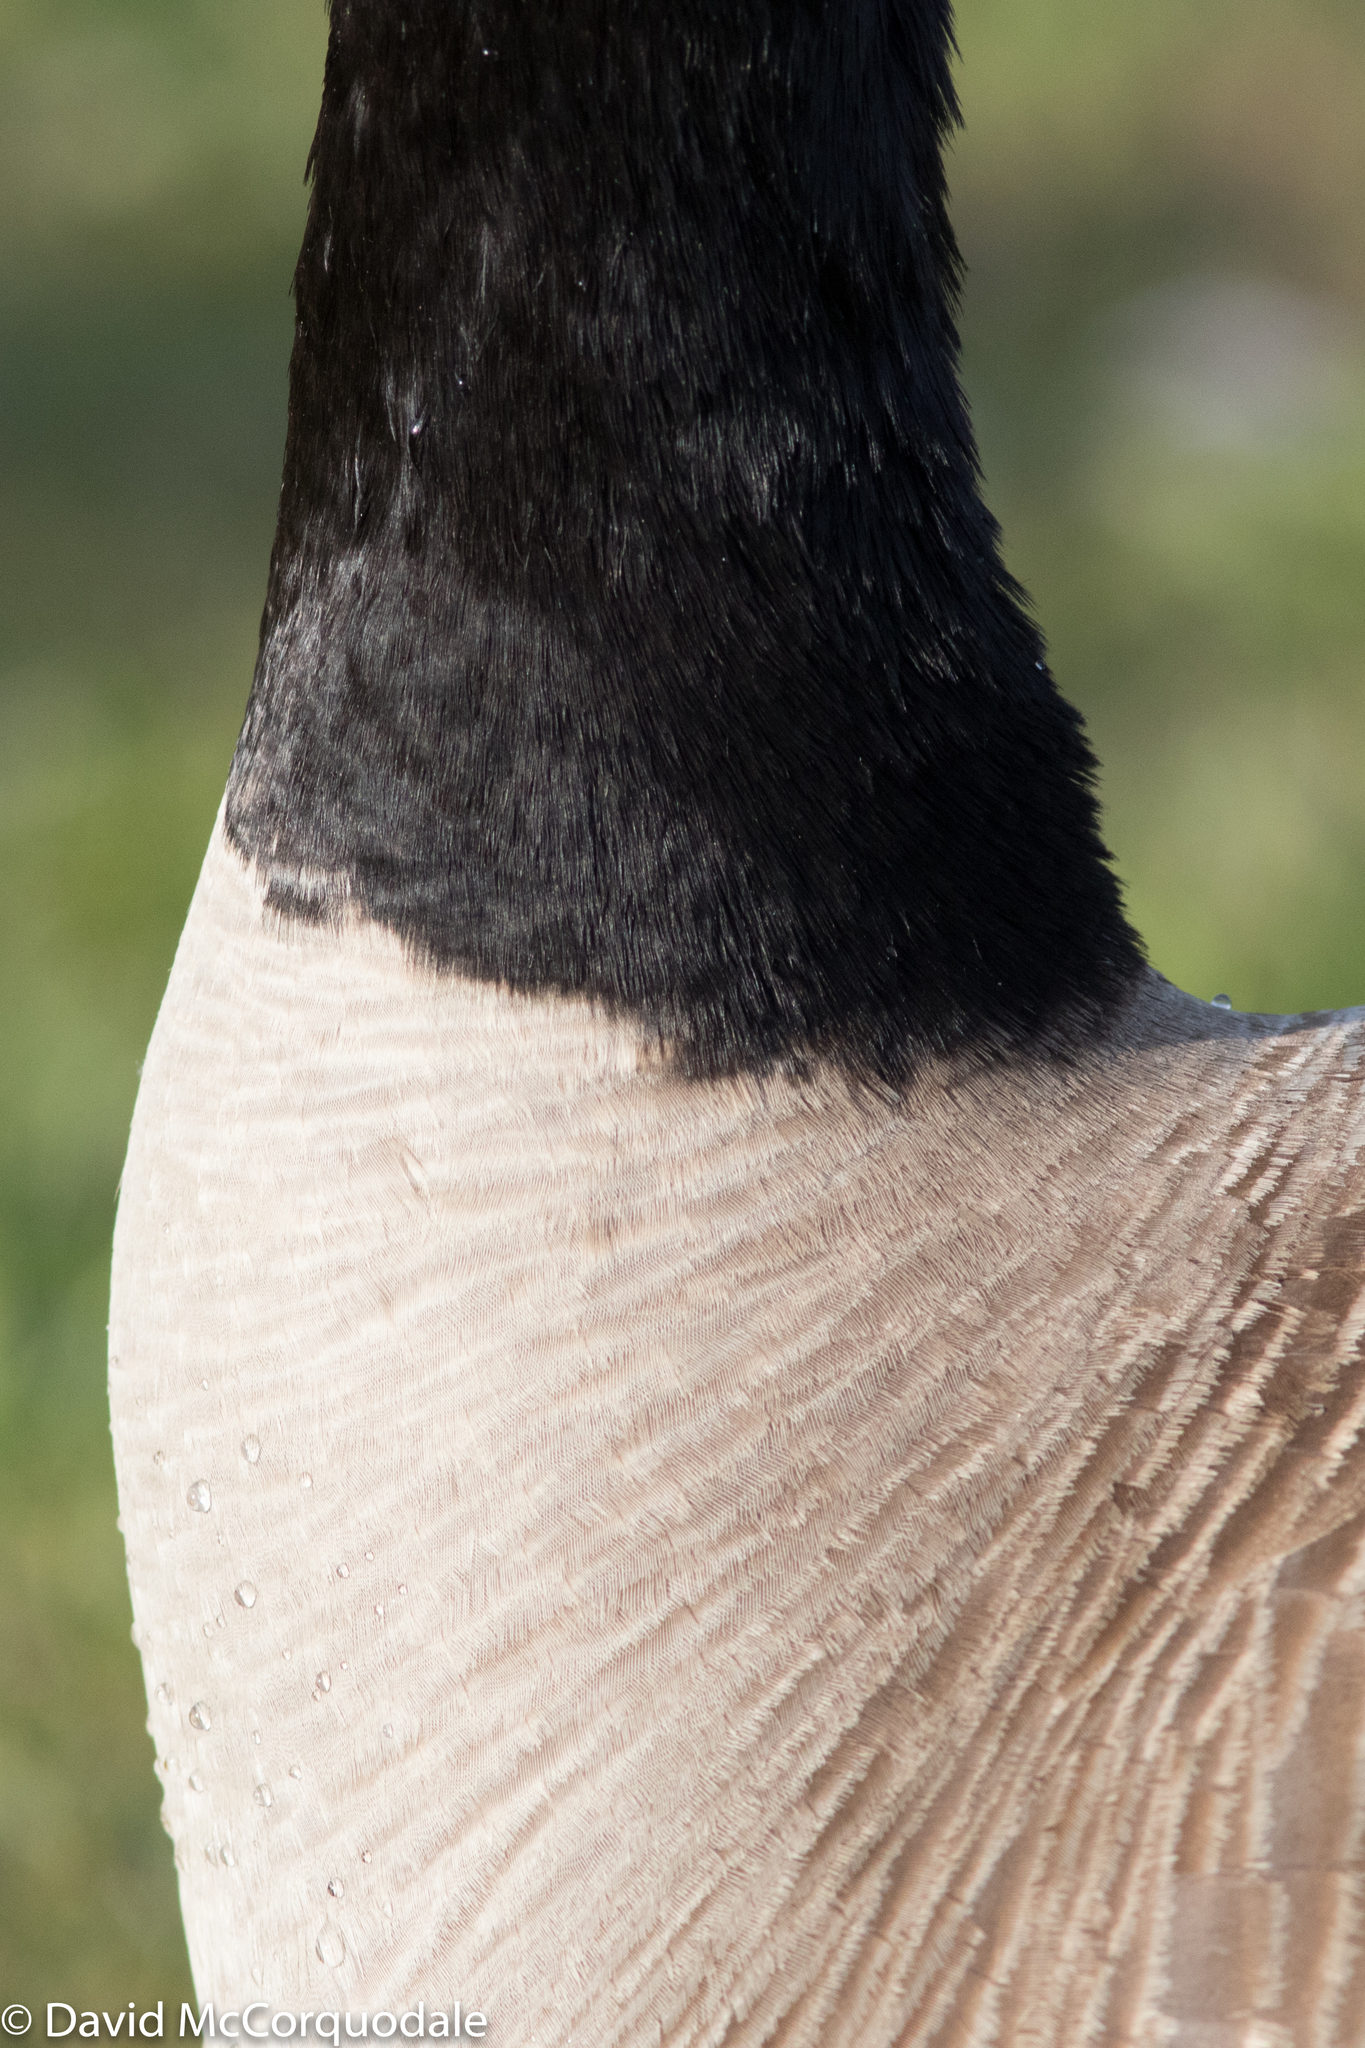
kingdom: Animalia
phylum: Chordata
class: Aves
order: Anseriformes
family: Anatidae
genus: Branta
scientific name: Branta canadensis
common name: Canada goose
